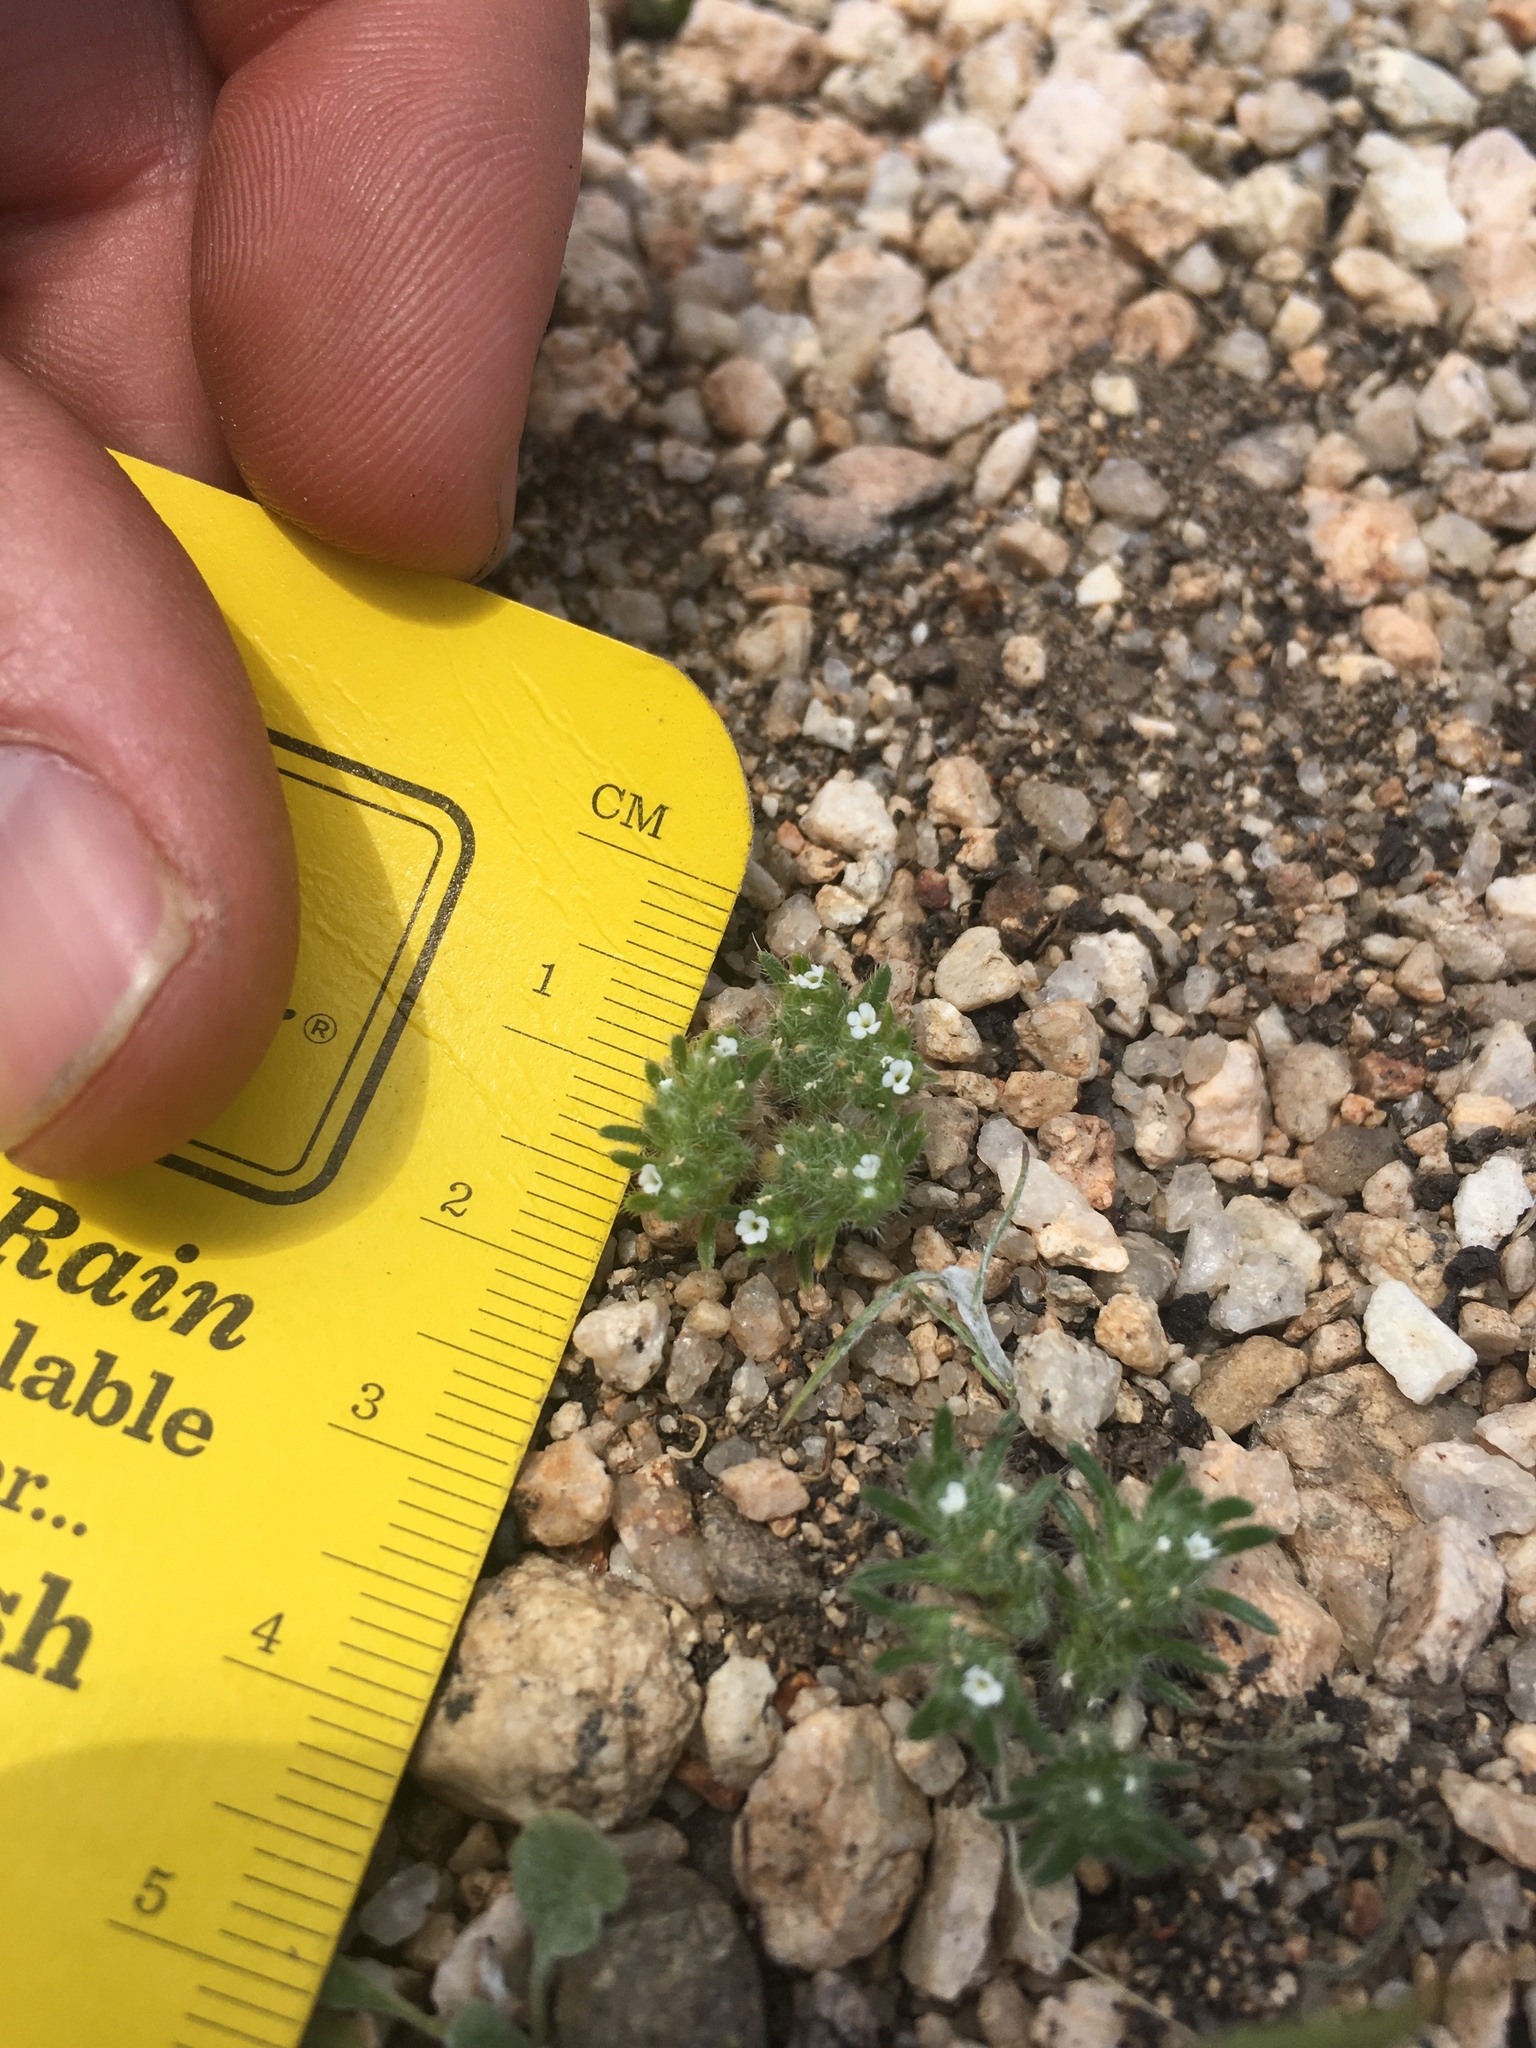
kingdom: Plantae
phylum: Tracheophyta
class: Magnoliopsida
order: Boraginales
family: Boraginaceae
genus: Greeneocharis
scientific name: Greeneocharis circumscissa
